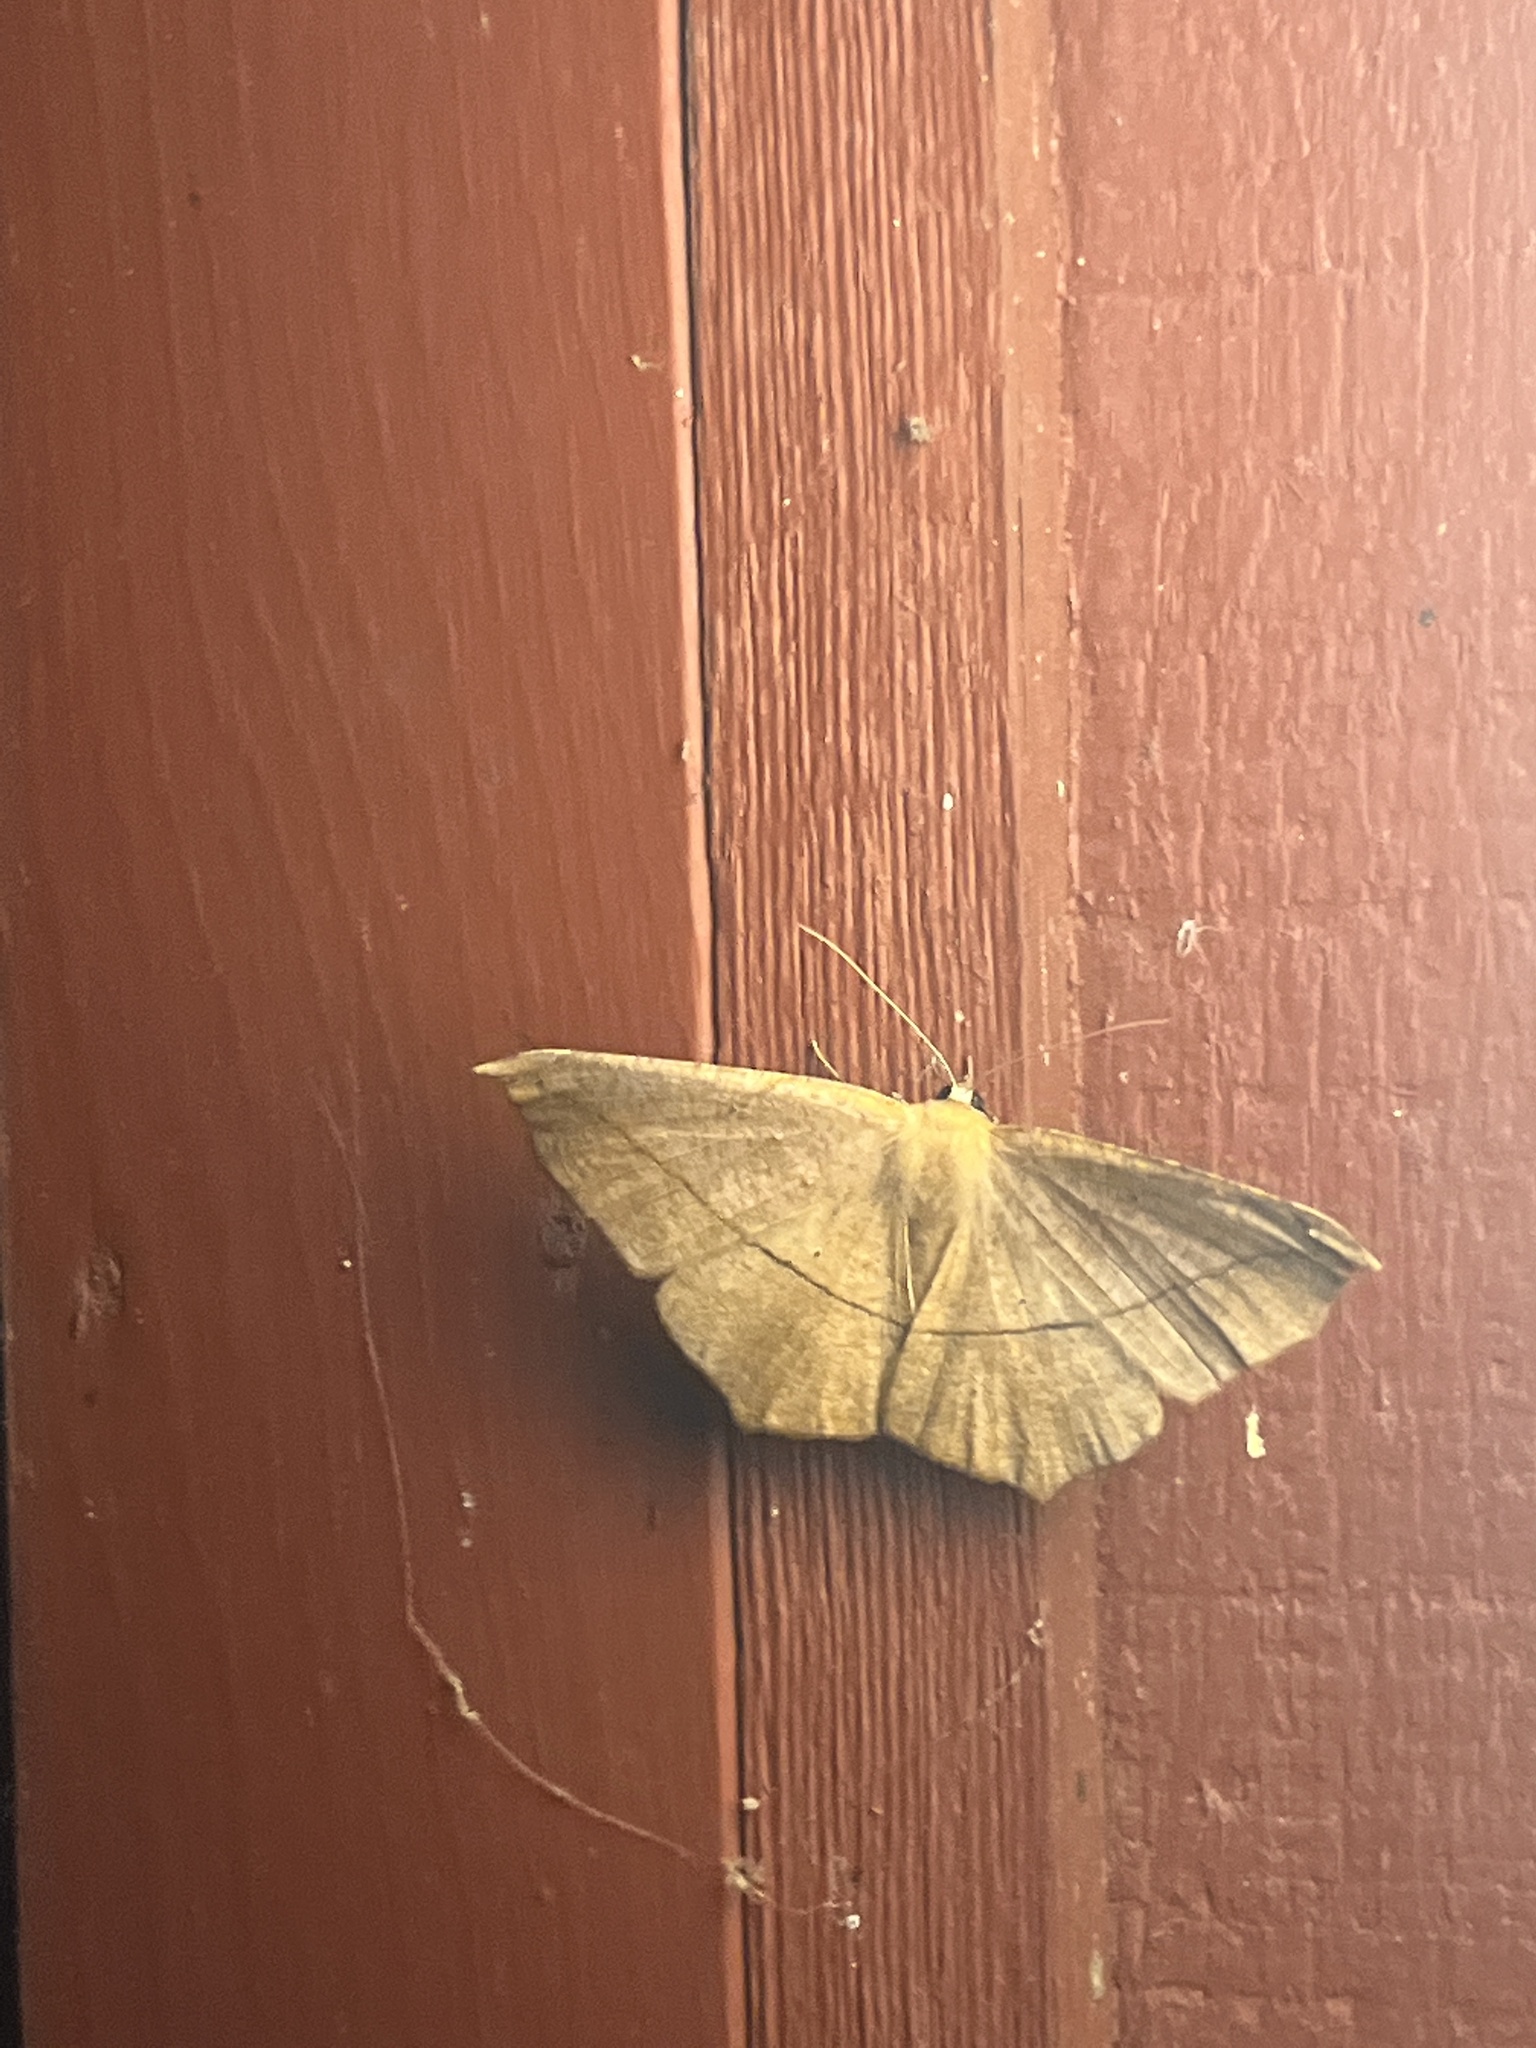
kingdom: Animalia
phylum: Arthropoda
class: Insecta
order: Lepidoptera
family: Geometridae
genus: Prochoerodes
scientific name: Prochoerodes lineola
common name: Large maple spanworm
